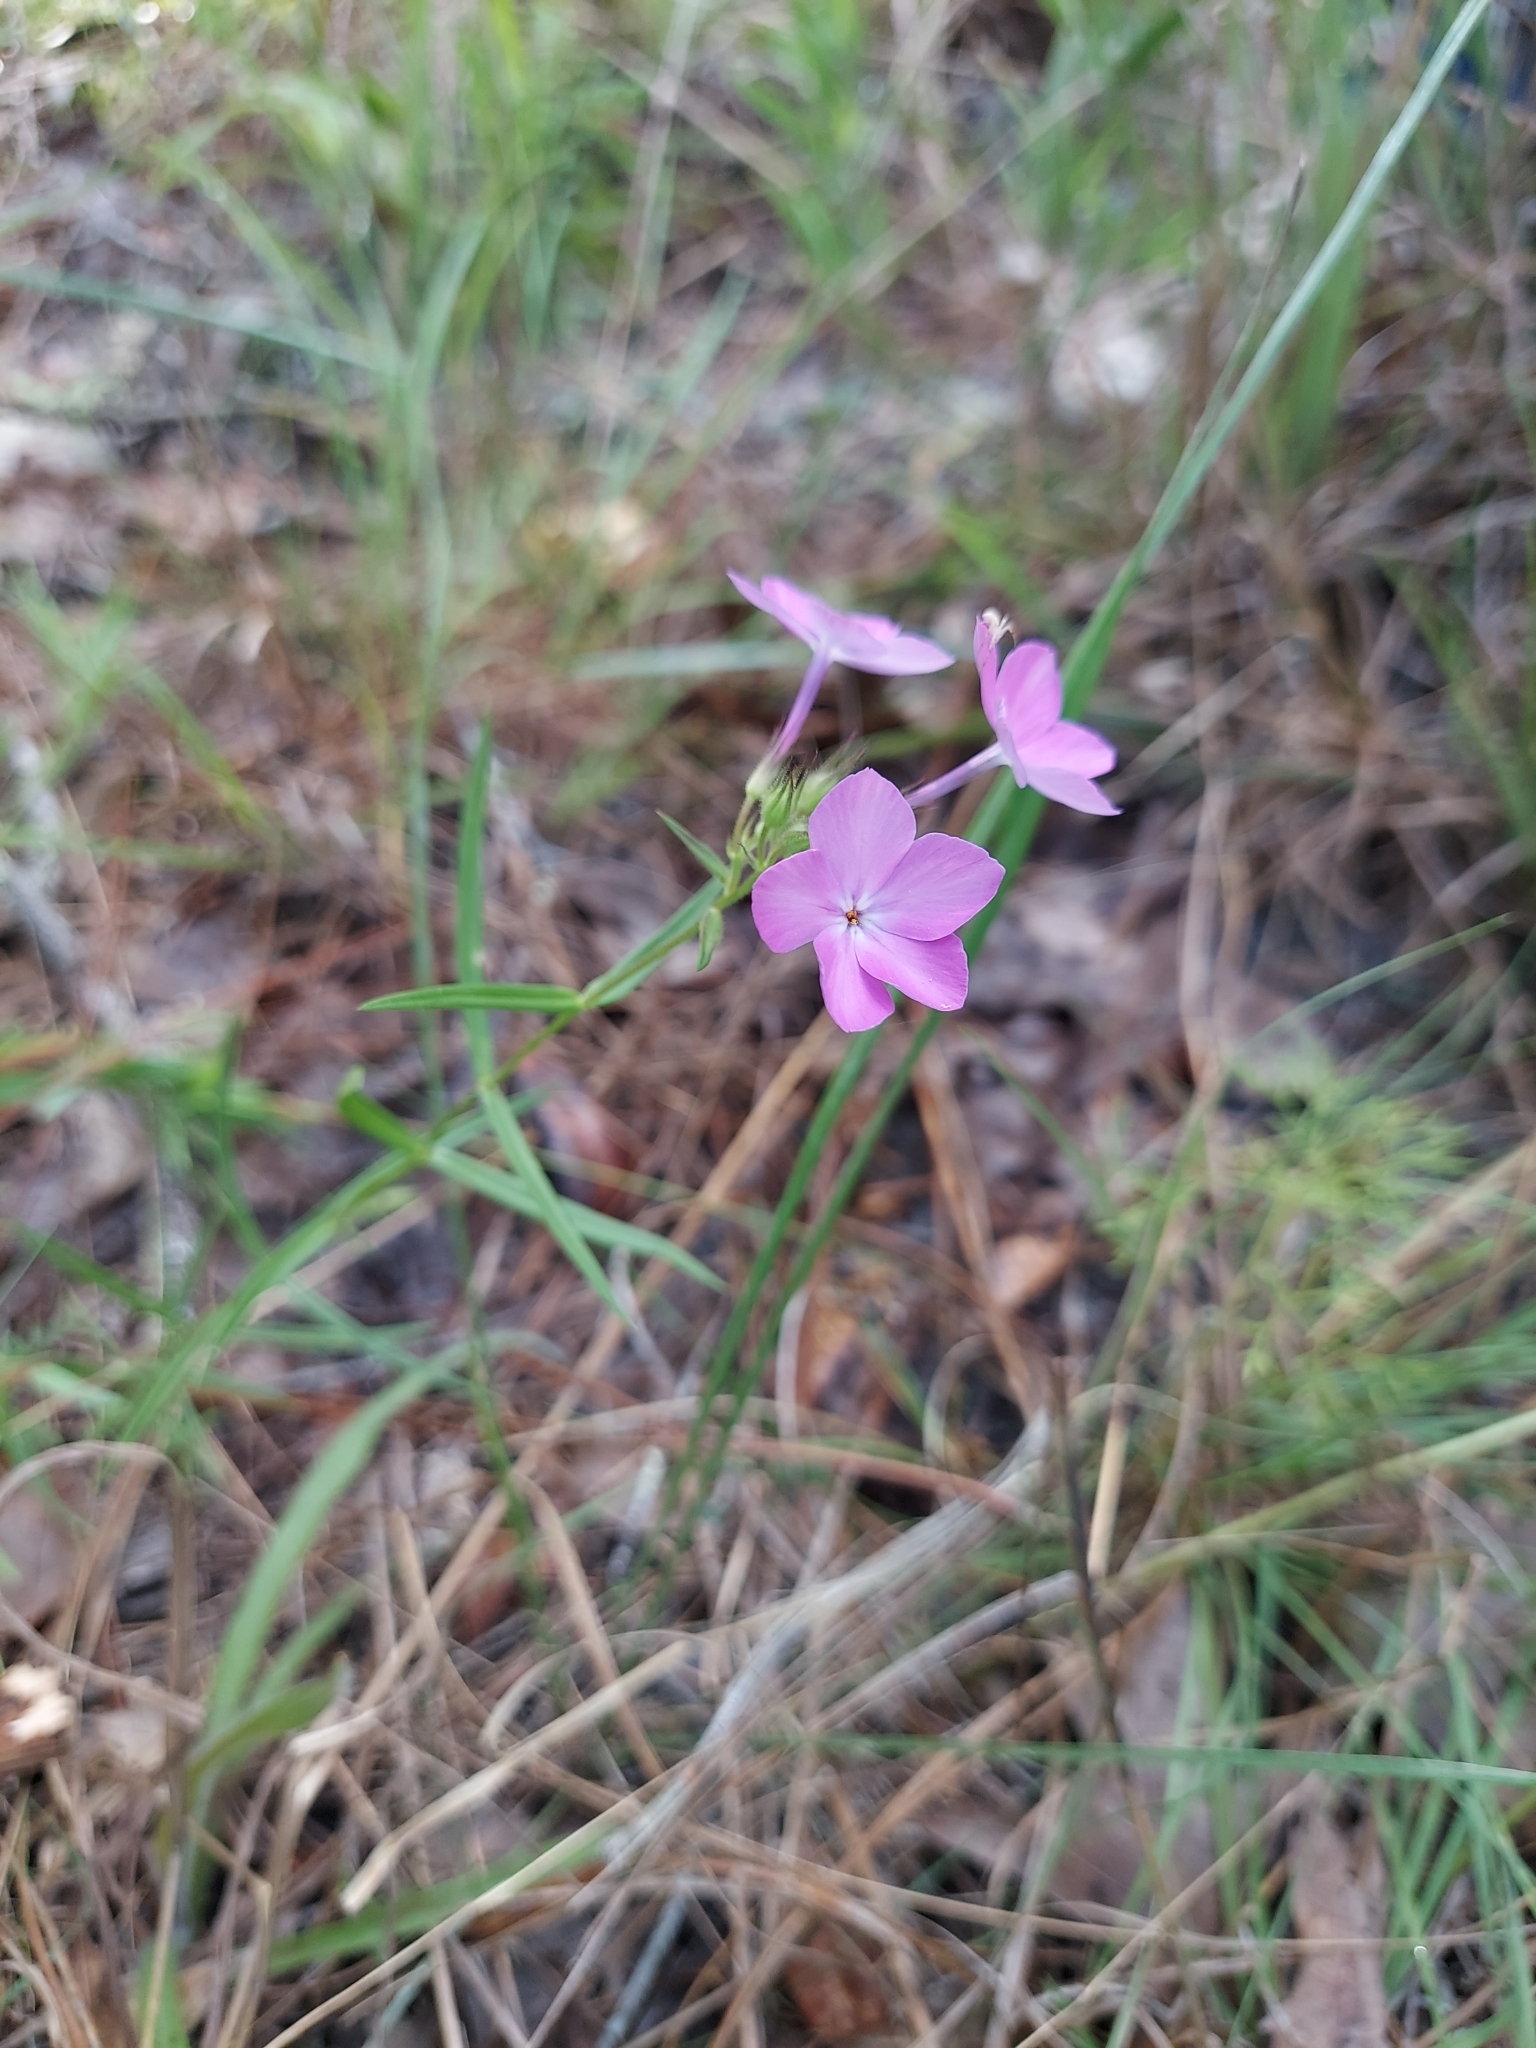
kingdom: Plantae
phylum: Tracheophyta
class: Magnoliopsida
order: Ericales
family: Polemoniaceae
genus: Phlox
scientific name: Phlox pilosa
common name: Prairie phlox
